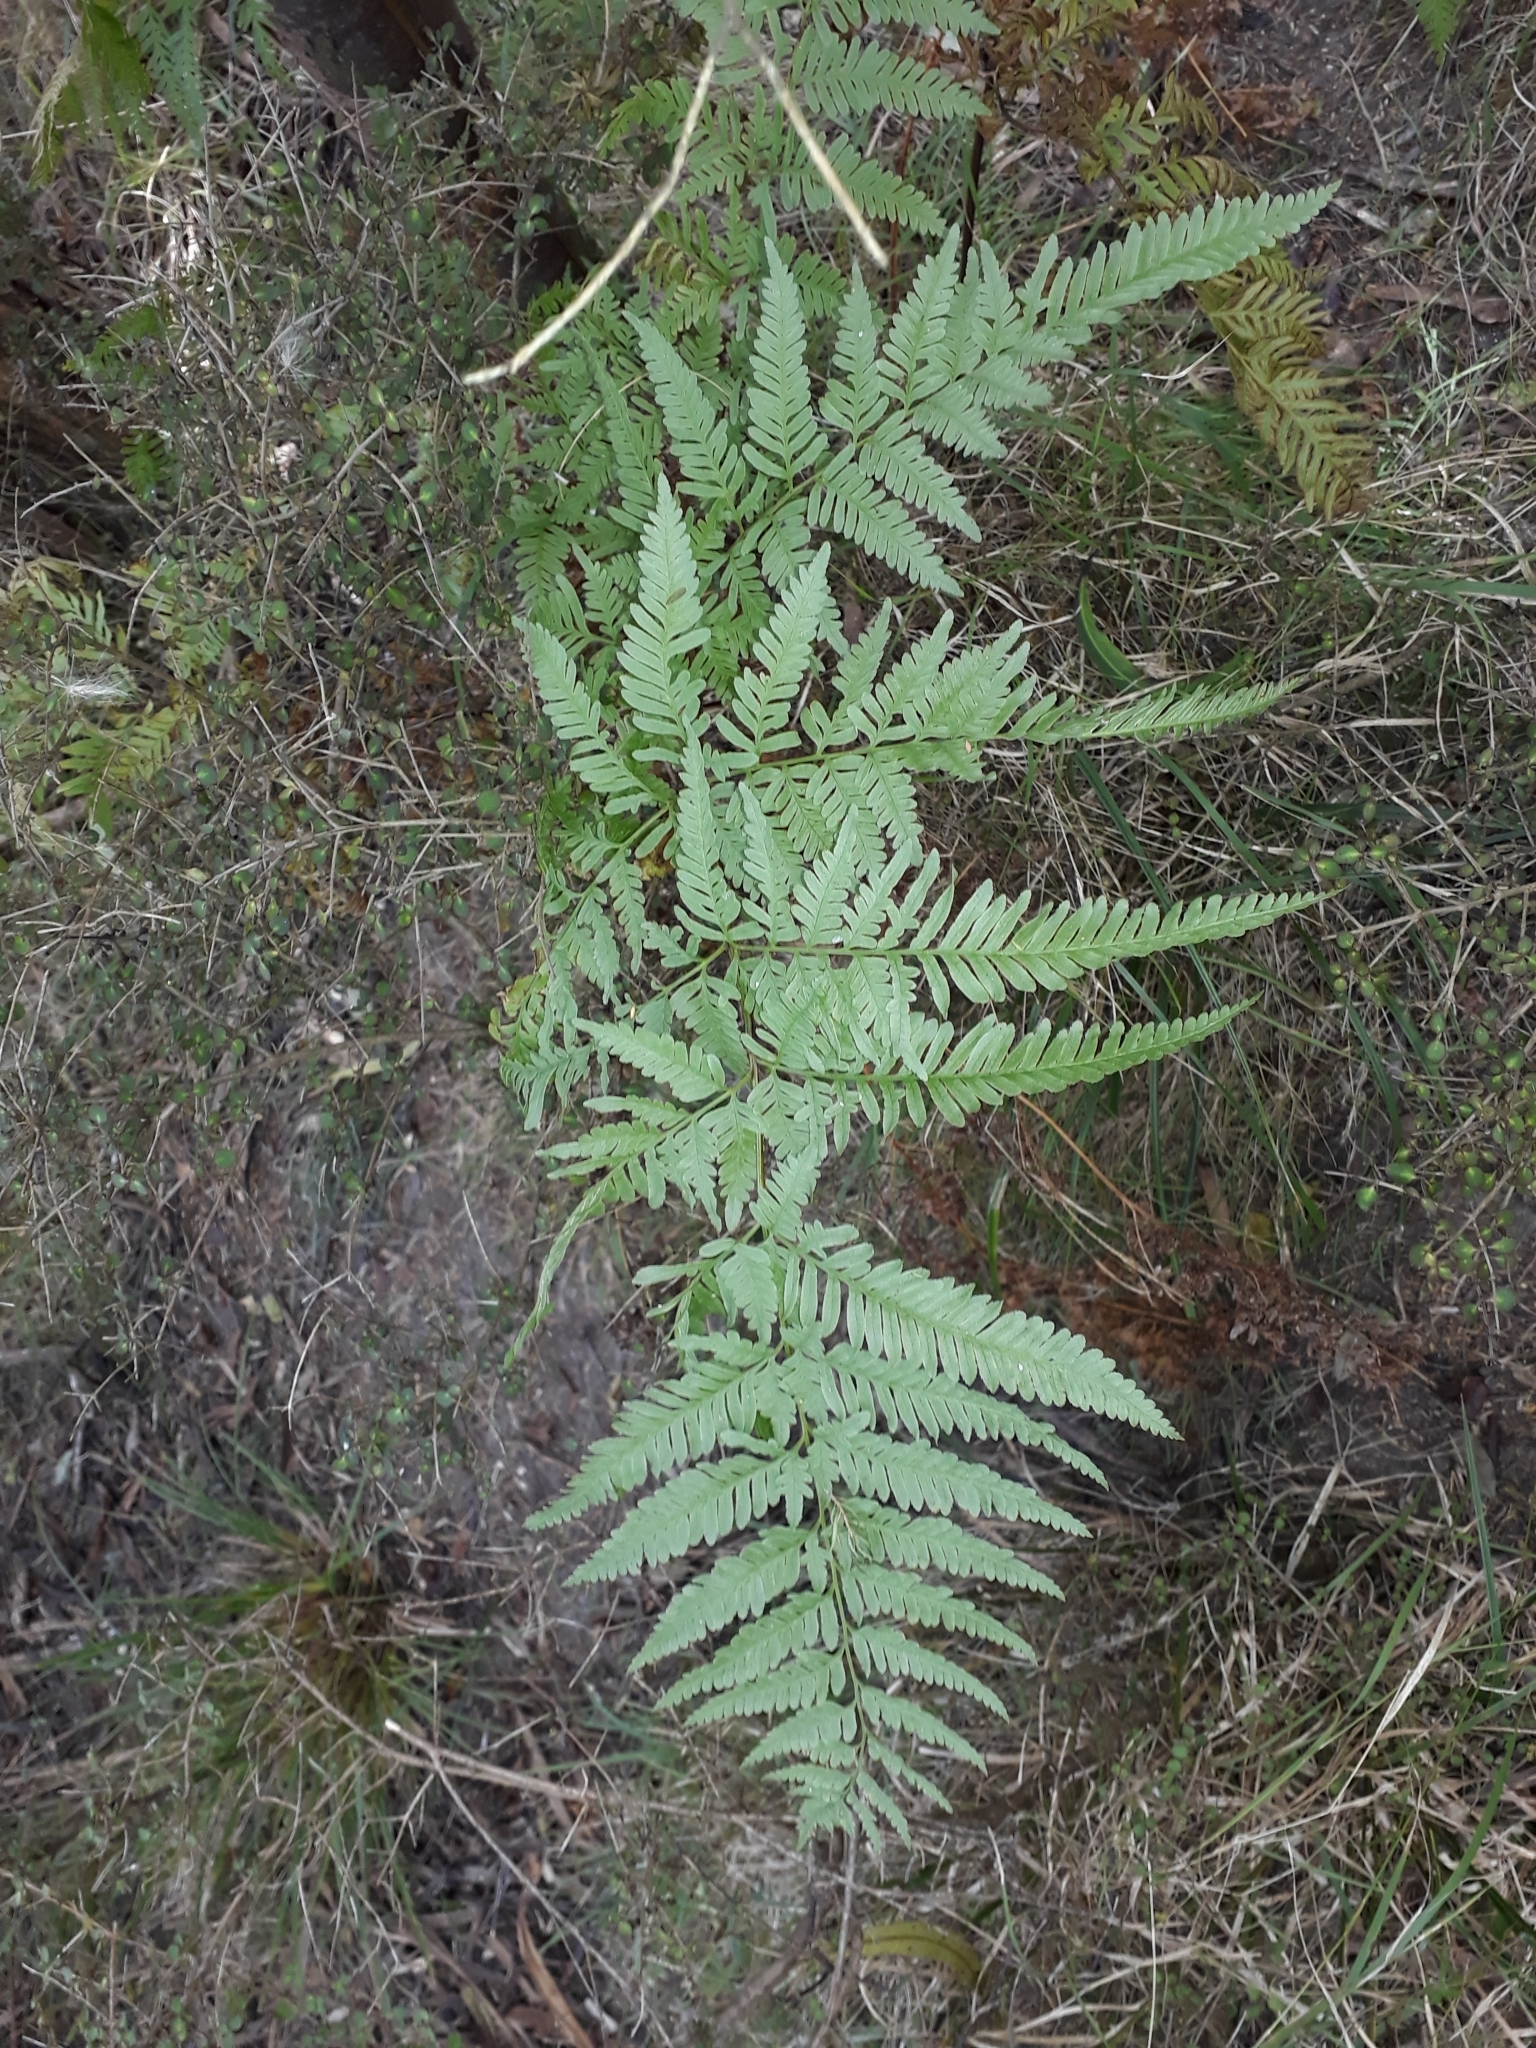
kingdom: Plantae
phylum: Tracheophyta
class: Polypodiopsida
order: Polypodiales
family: Pteridaceae
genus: Pteris
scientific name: Pteris tremula
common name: Australian brake
